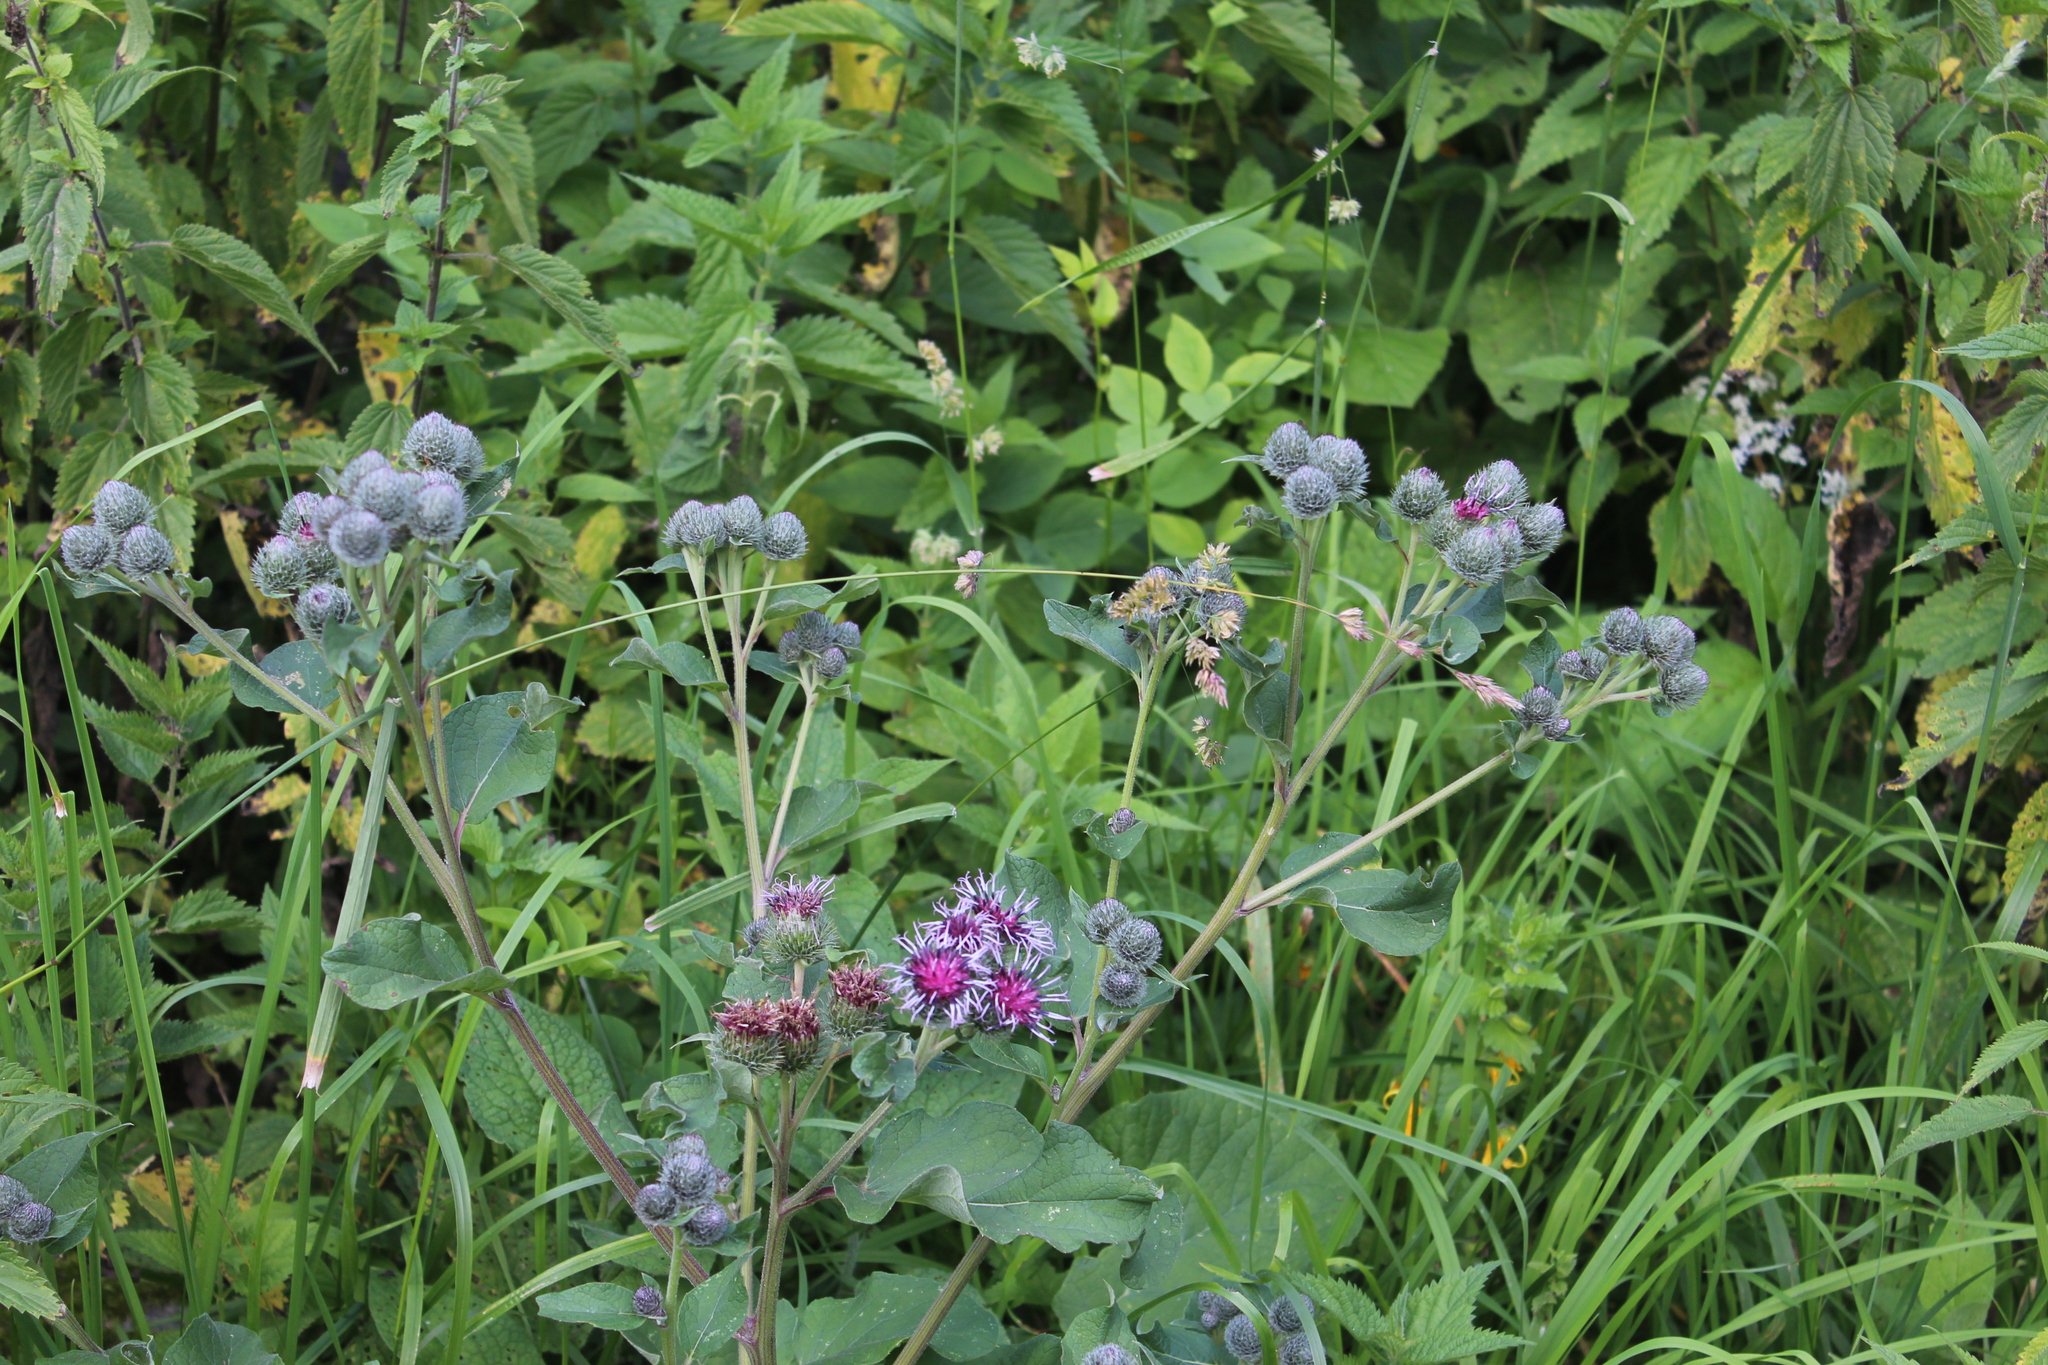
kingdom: Plantae
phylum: Tracheophyta
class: Magnoliopsida
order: Asterales
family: Asteraceae
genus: Arctium
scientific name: Arctium tomentosum
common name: Woolly burdock
